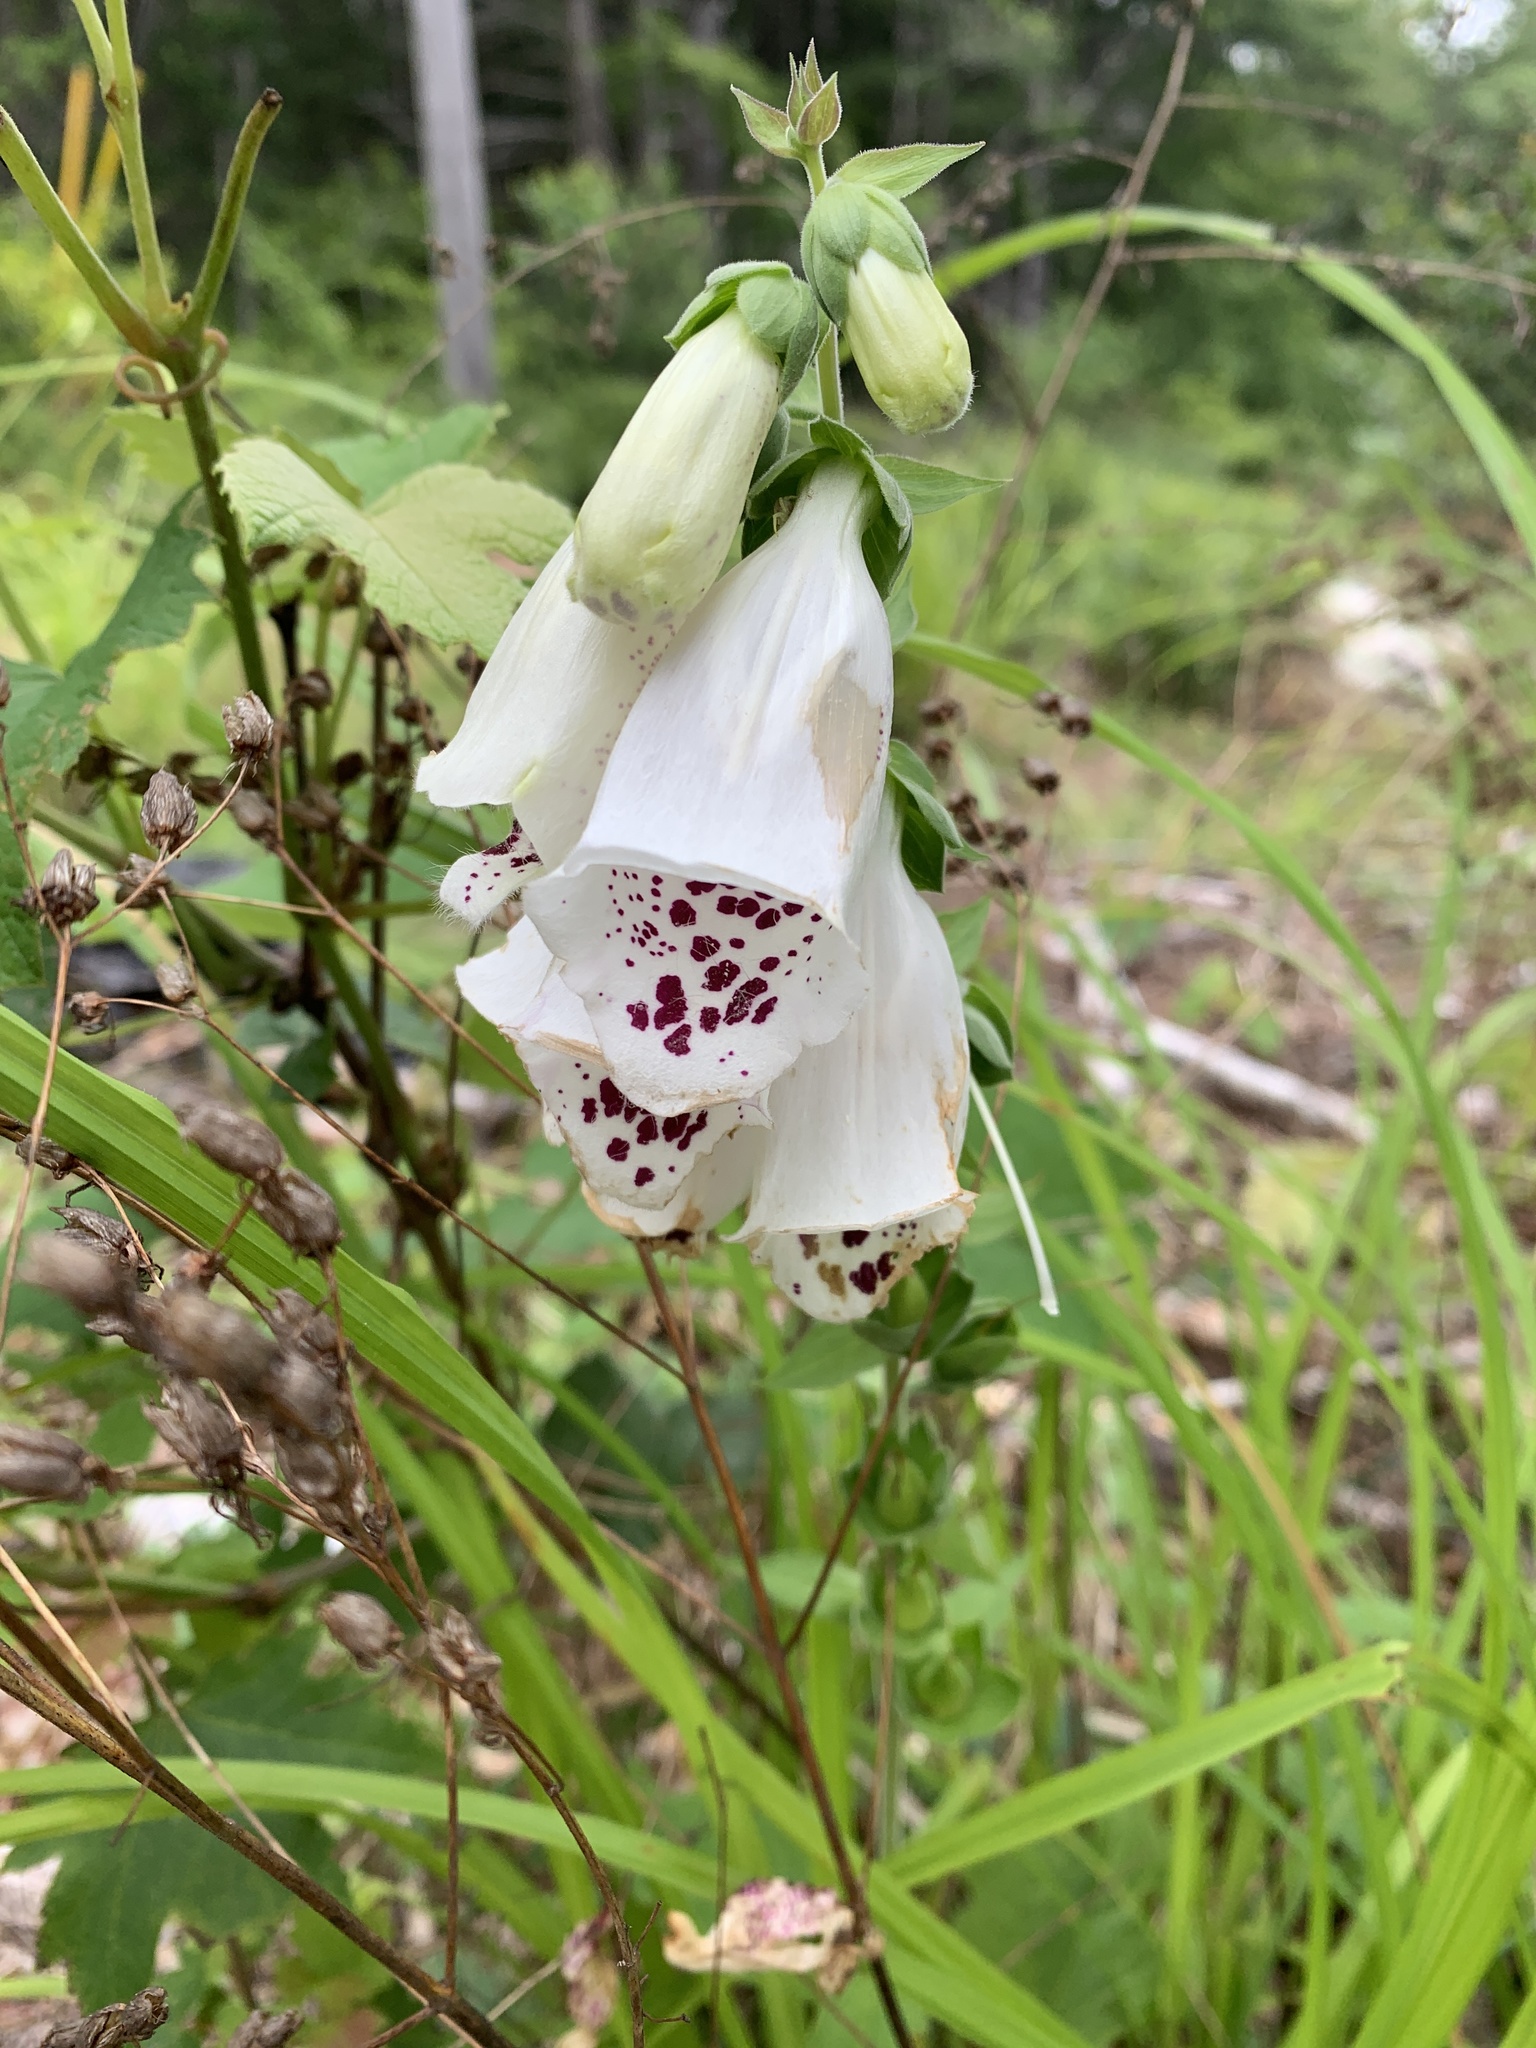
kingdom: Plantae
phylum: Tracheophyta
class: Magnoliopsida
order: Lamiales
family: Plantaginaceae
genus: Digitalis
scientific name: Digitalis purpurea
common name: Foxglove
